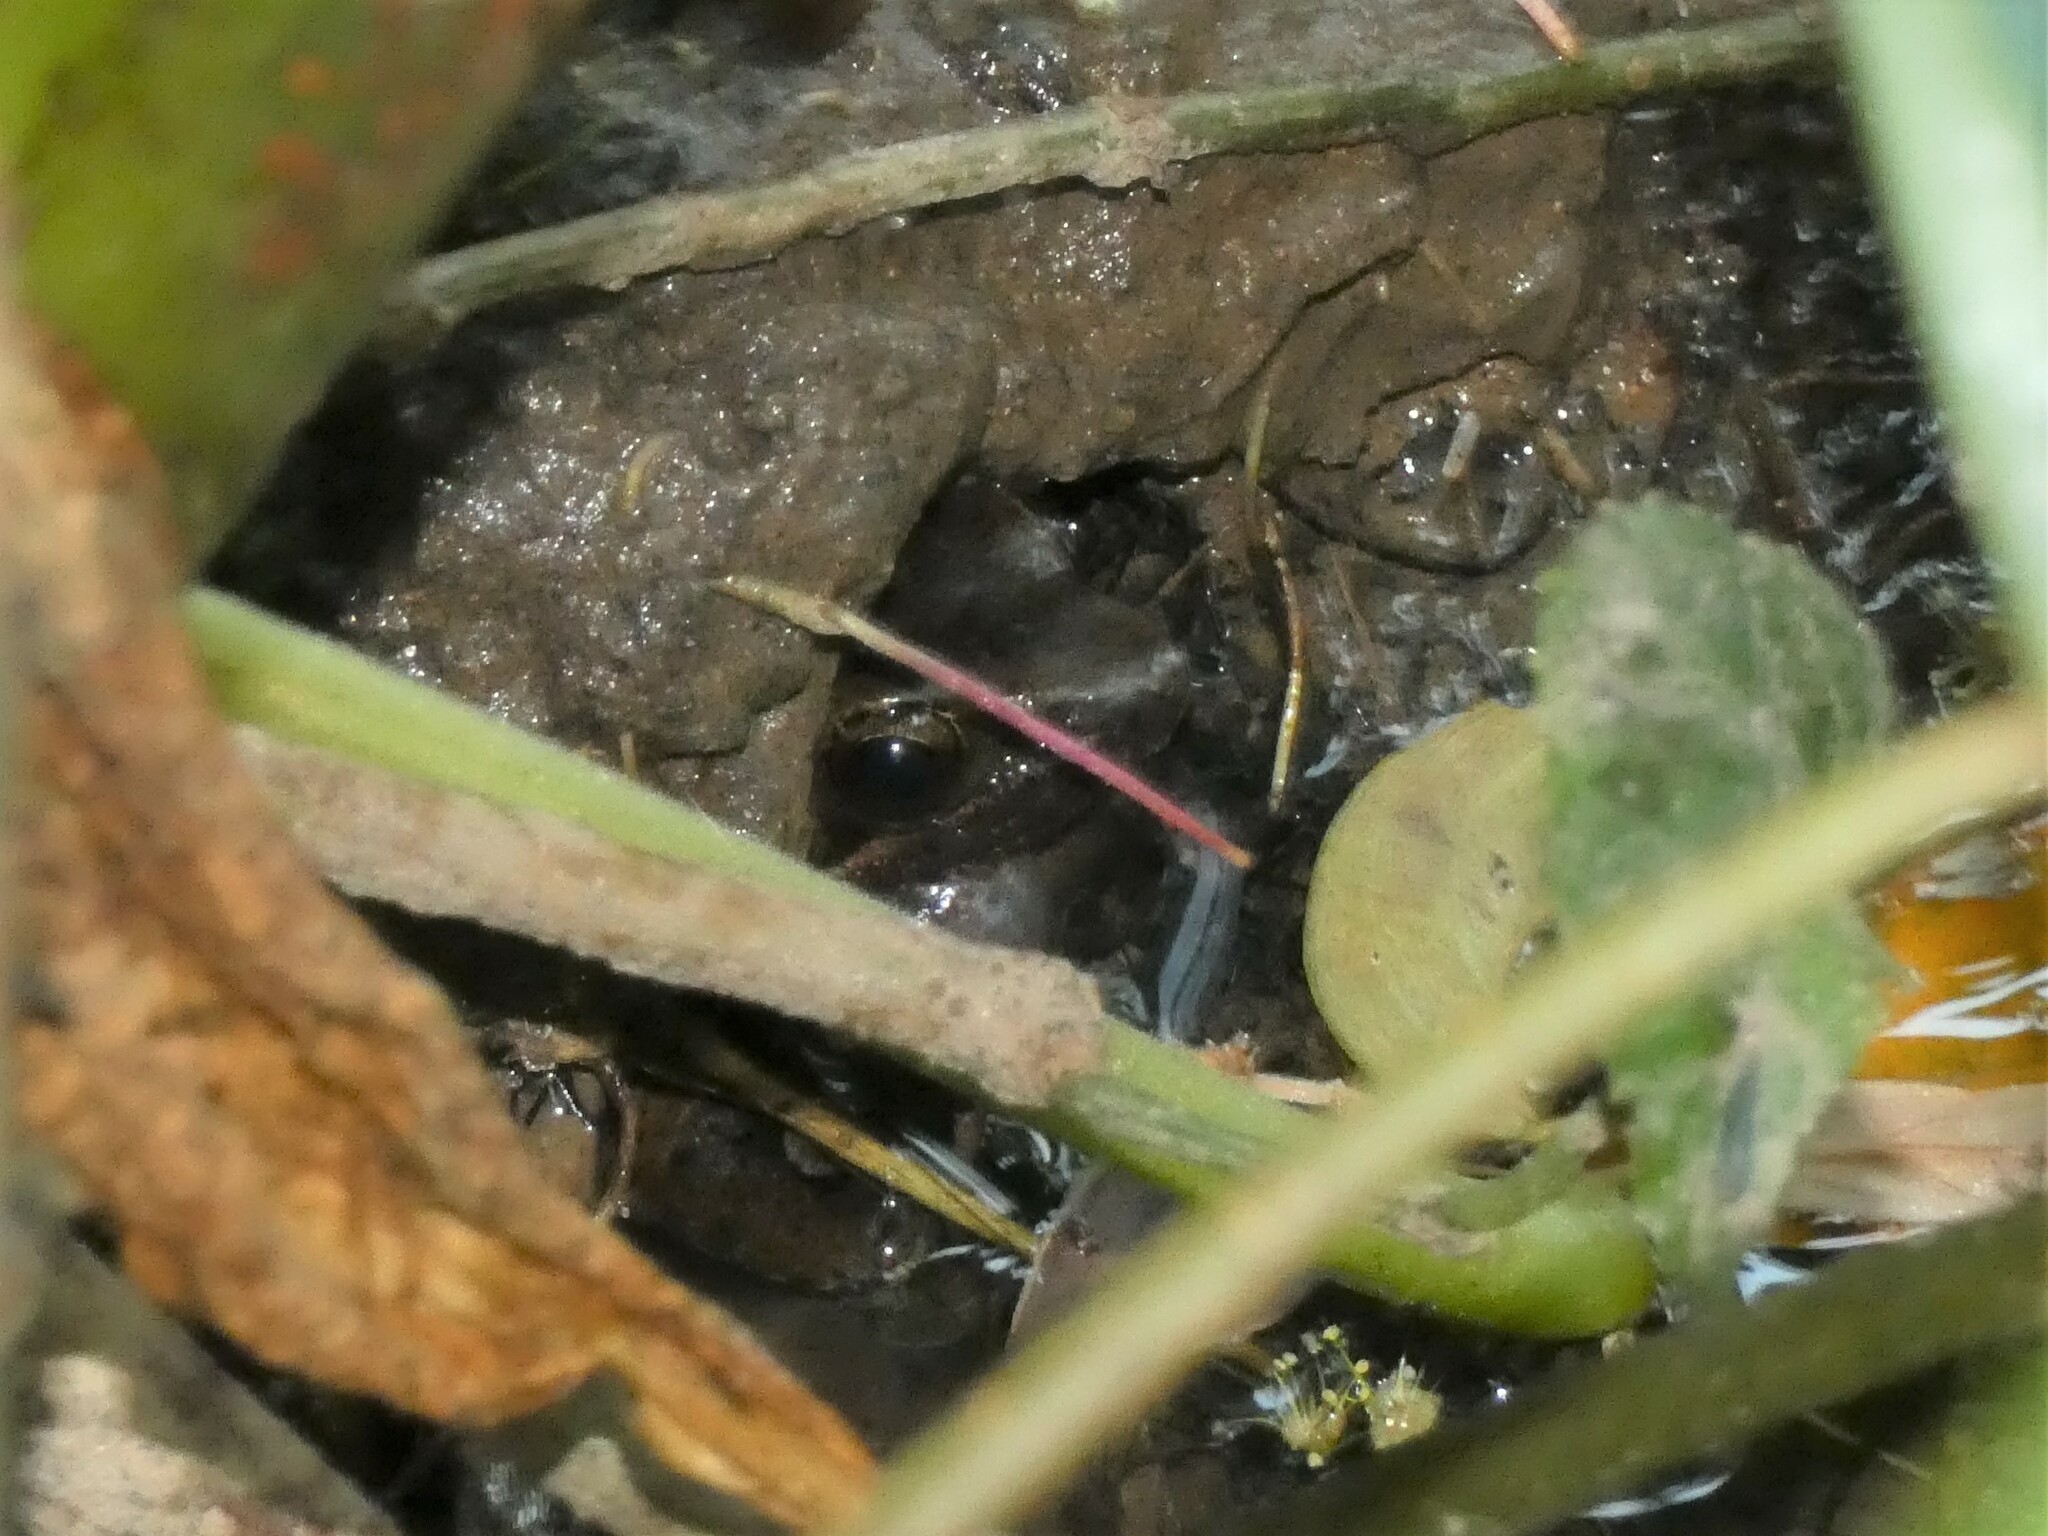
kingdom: Animalia
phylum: Chordata
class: Amphibia
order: Anura
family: Ranidae
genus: Sylvirana
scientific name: Sylvirana nigrovittata
